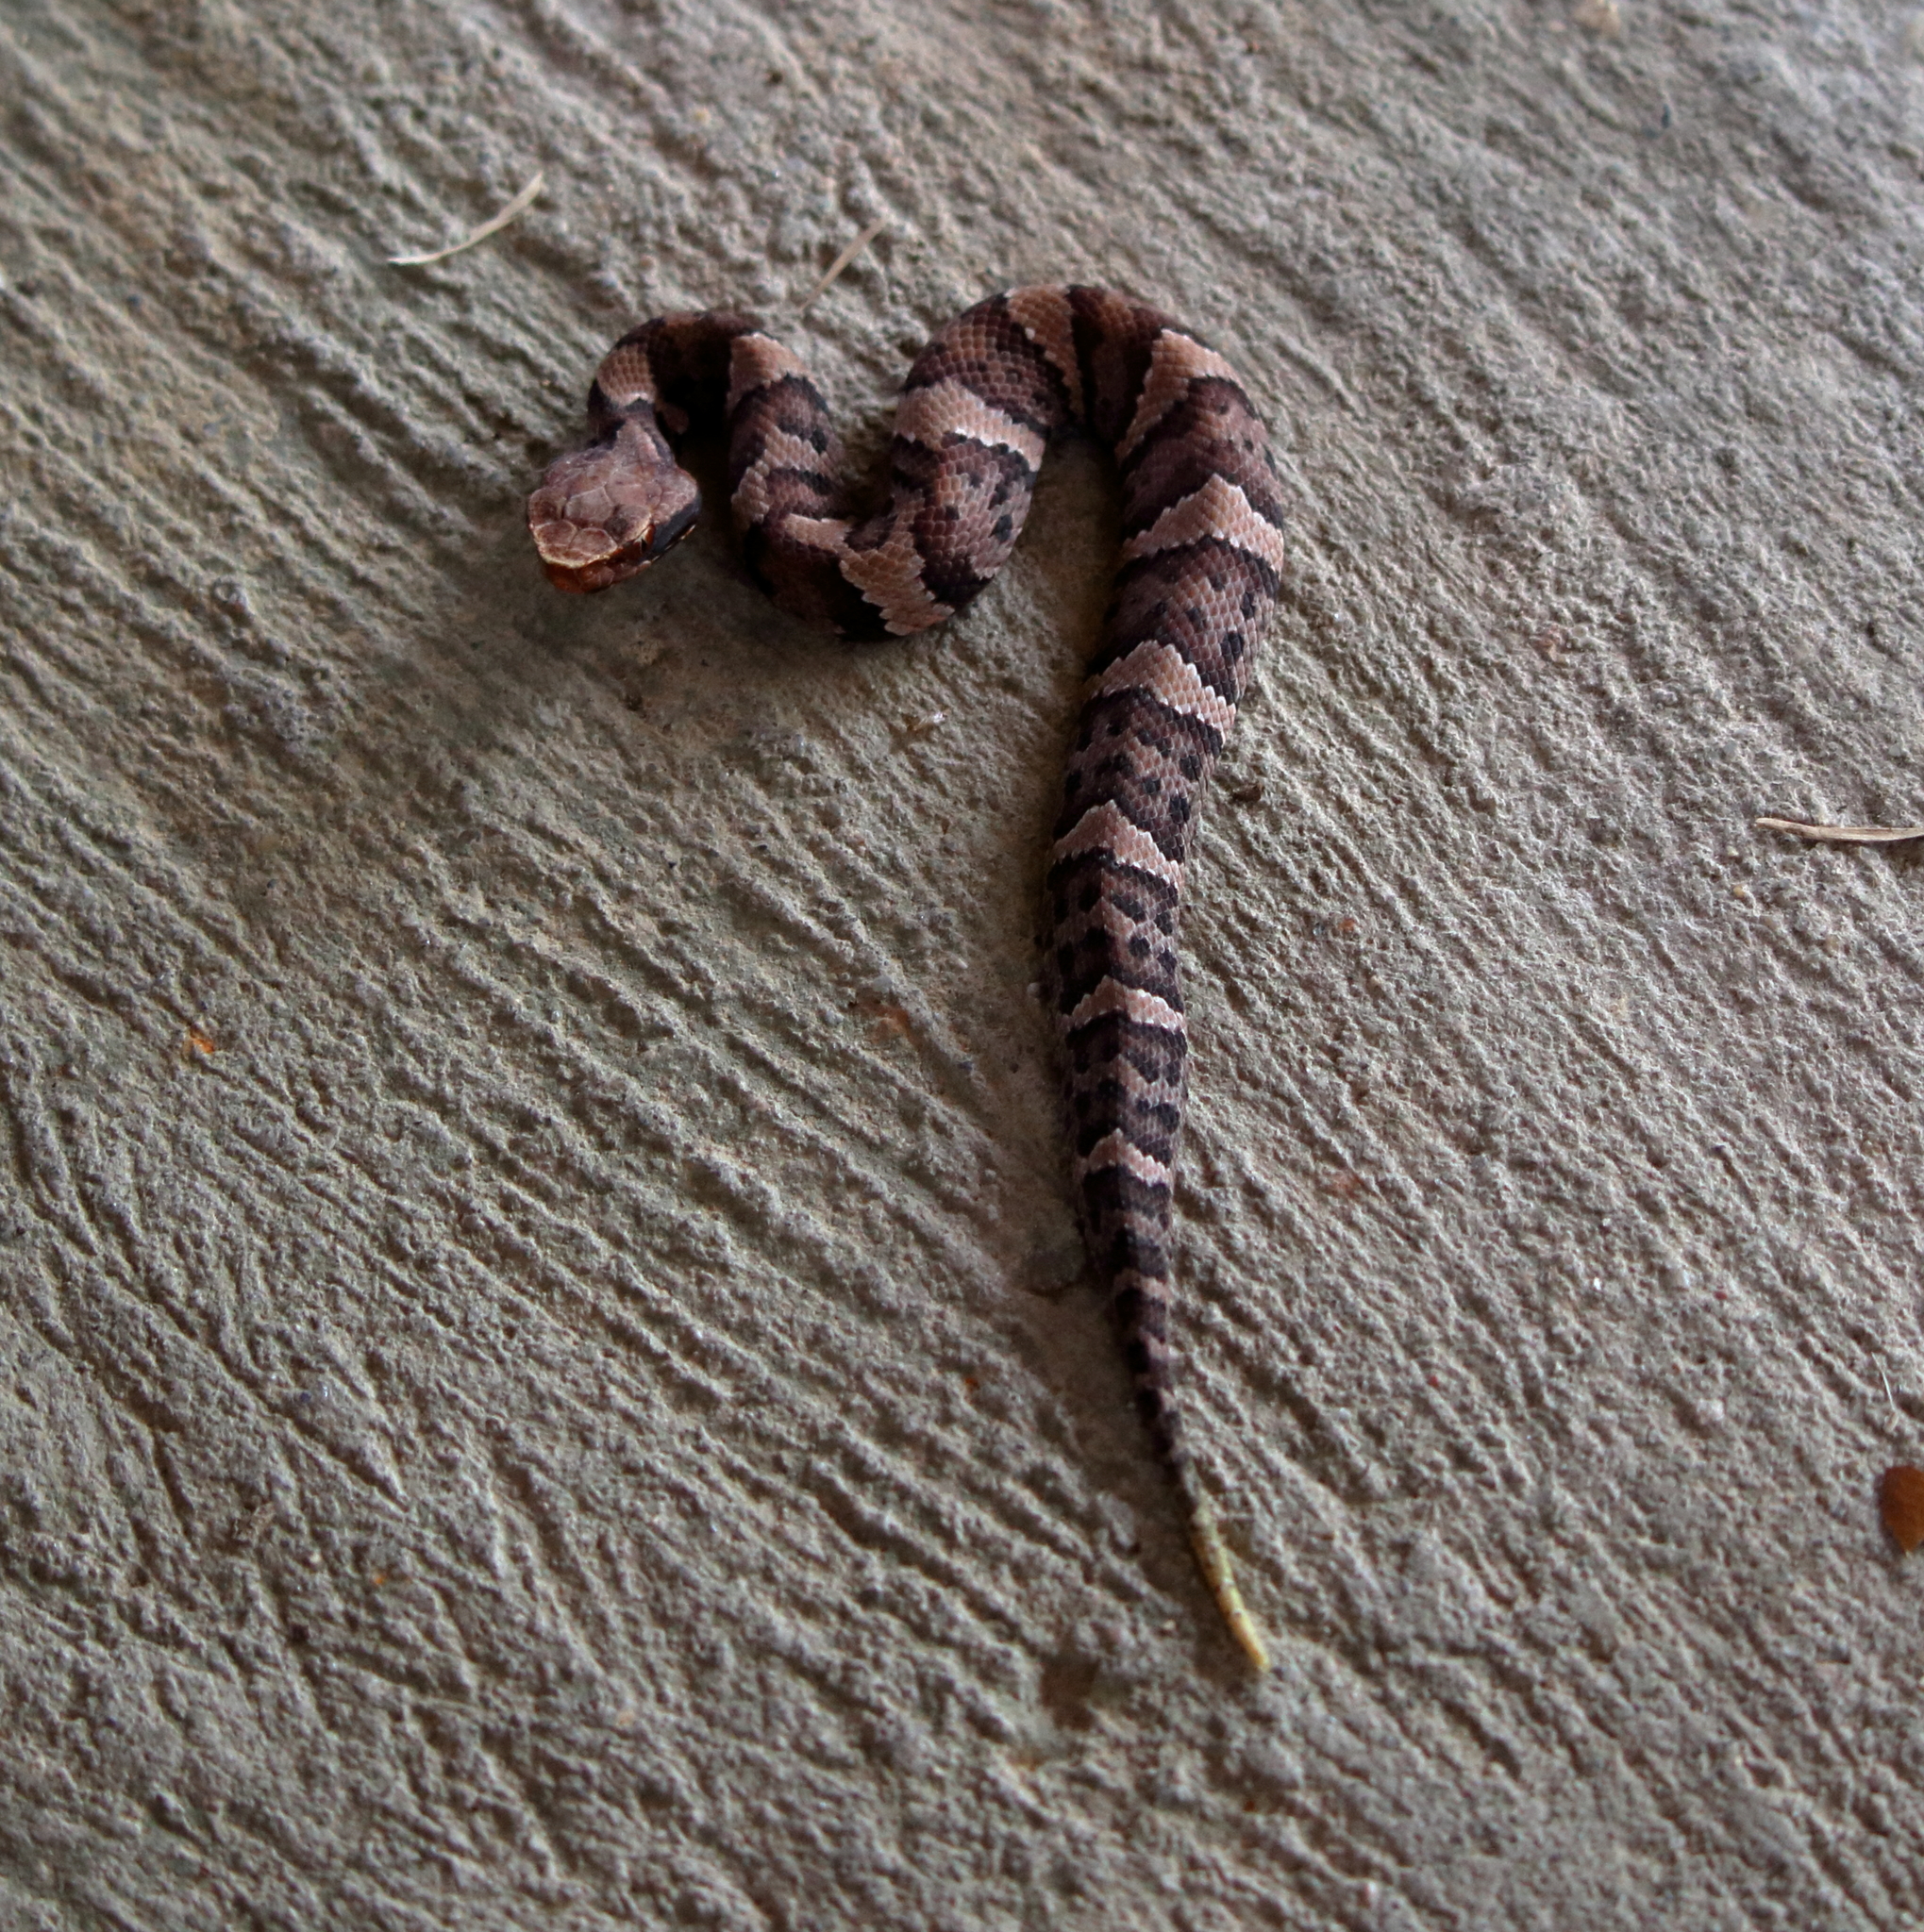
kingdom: Animalia
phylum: Chordata
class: Squamata
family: Viperidae
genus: Agkistrodon
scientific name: Agkistrodon piscivorus
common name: Cottonmouth
